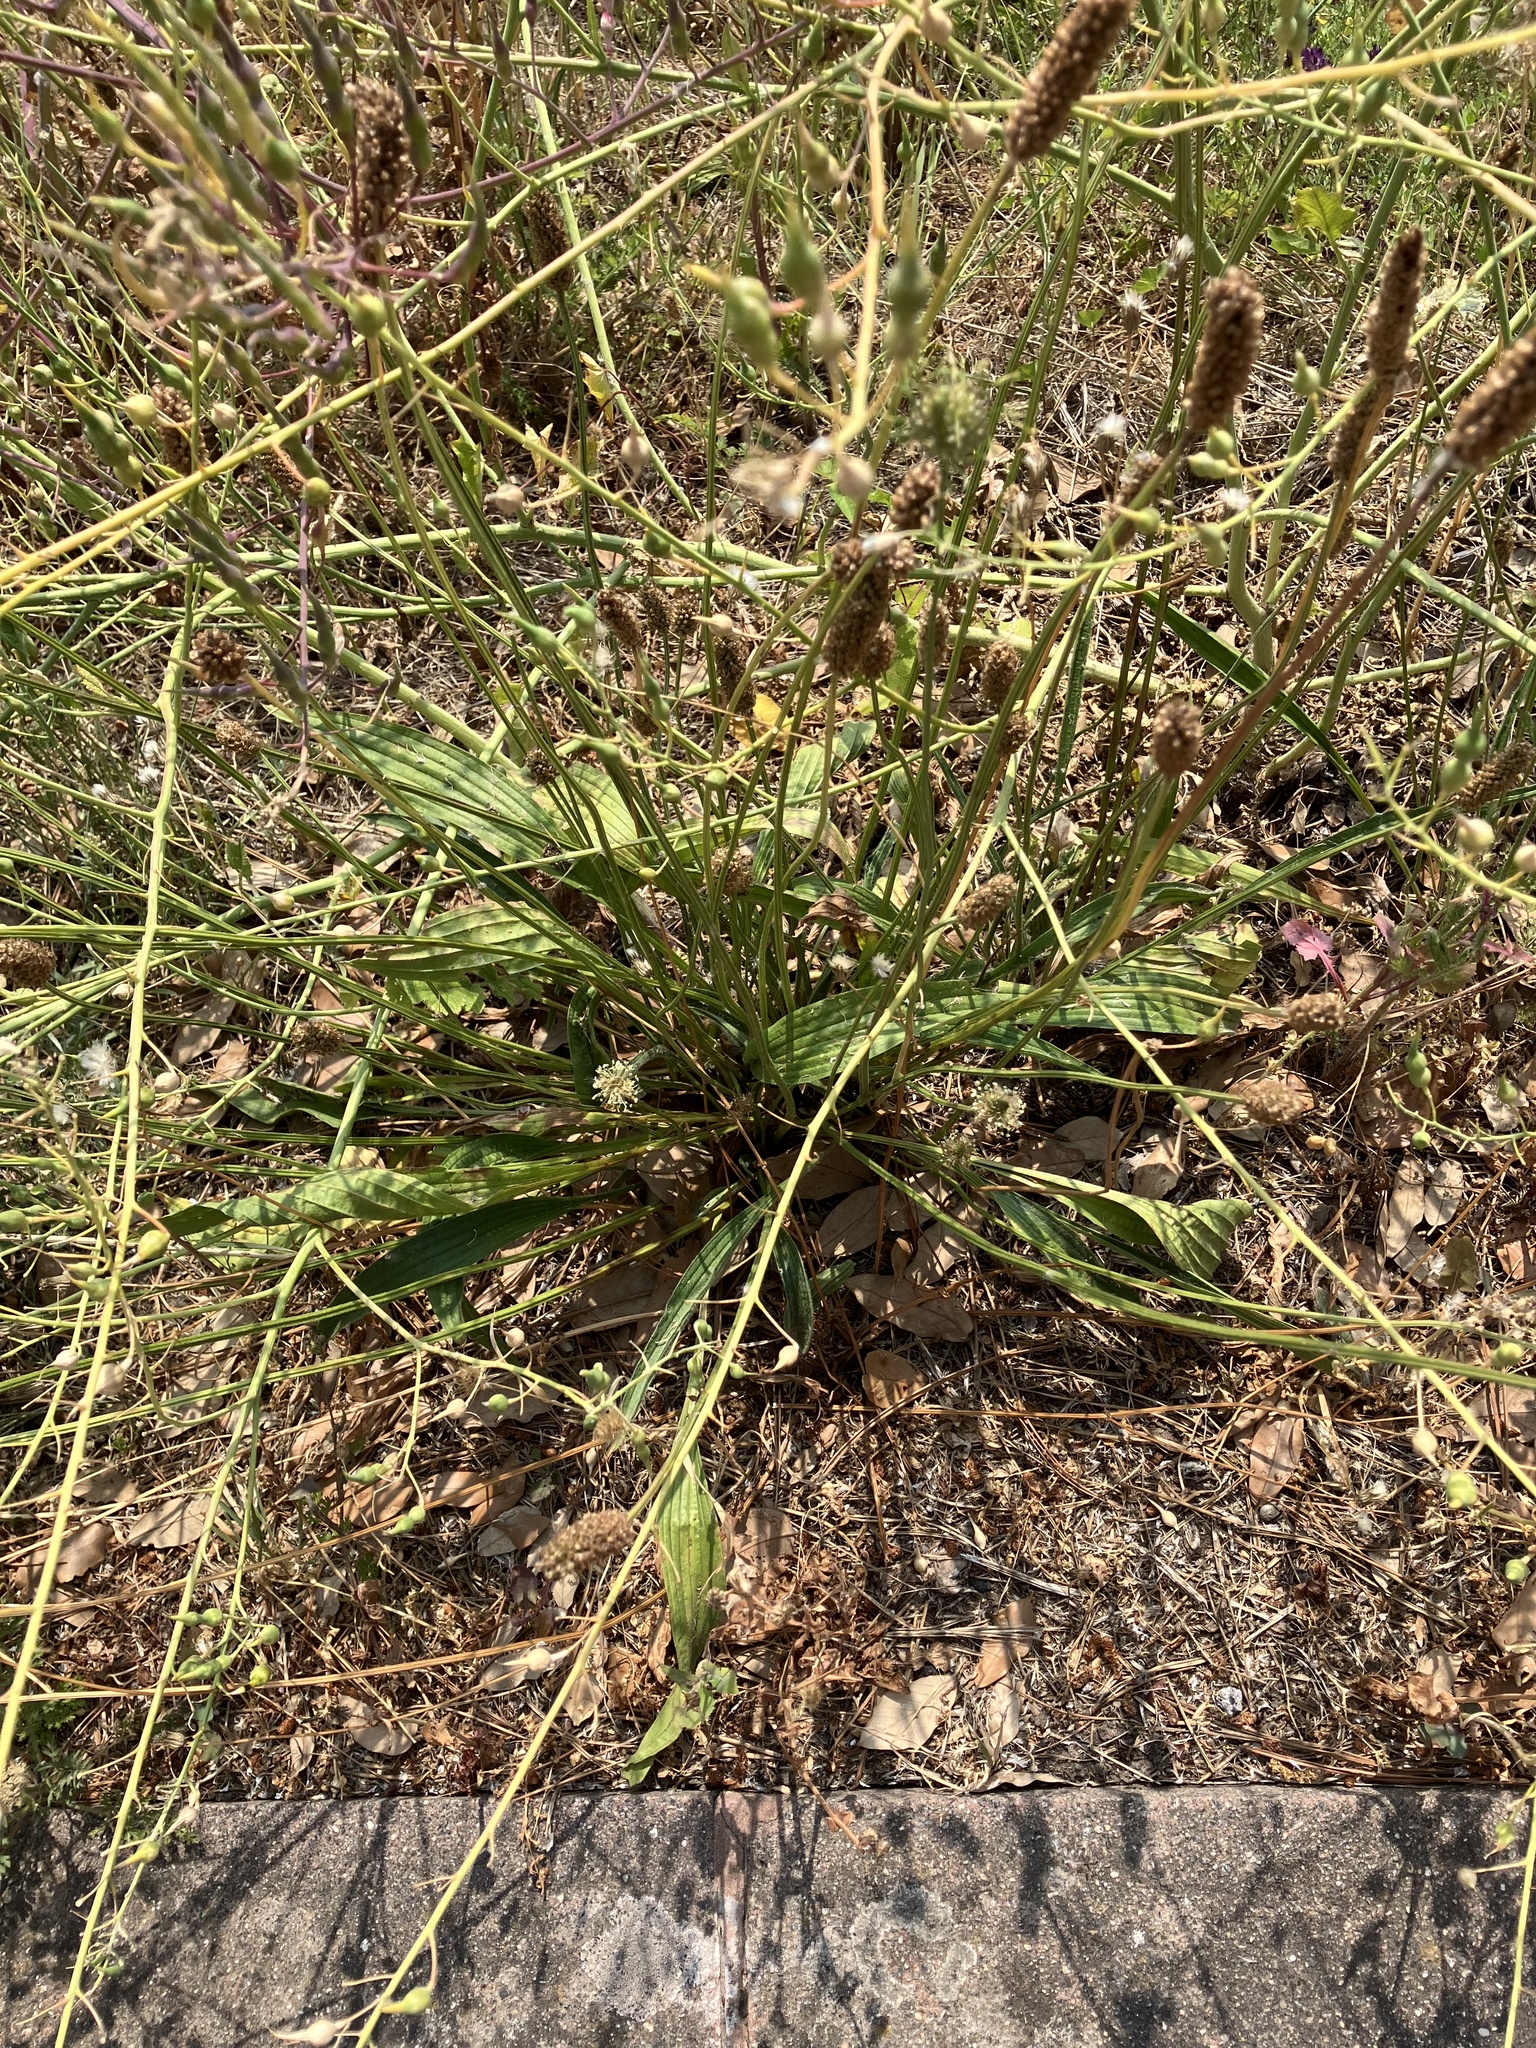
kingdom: Plantae
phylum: Tracheophyta
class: Magnoliopsida
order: Lamiales
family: Plantaginaceae
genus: Plantago
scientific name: Plantago lanceolata
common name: Ribwort plantain
